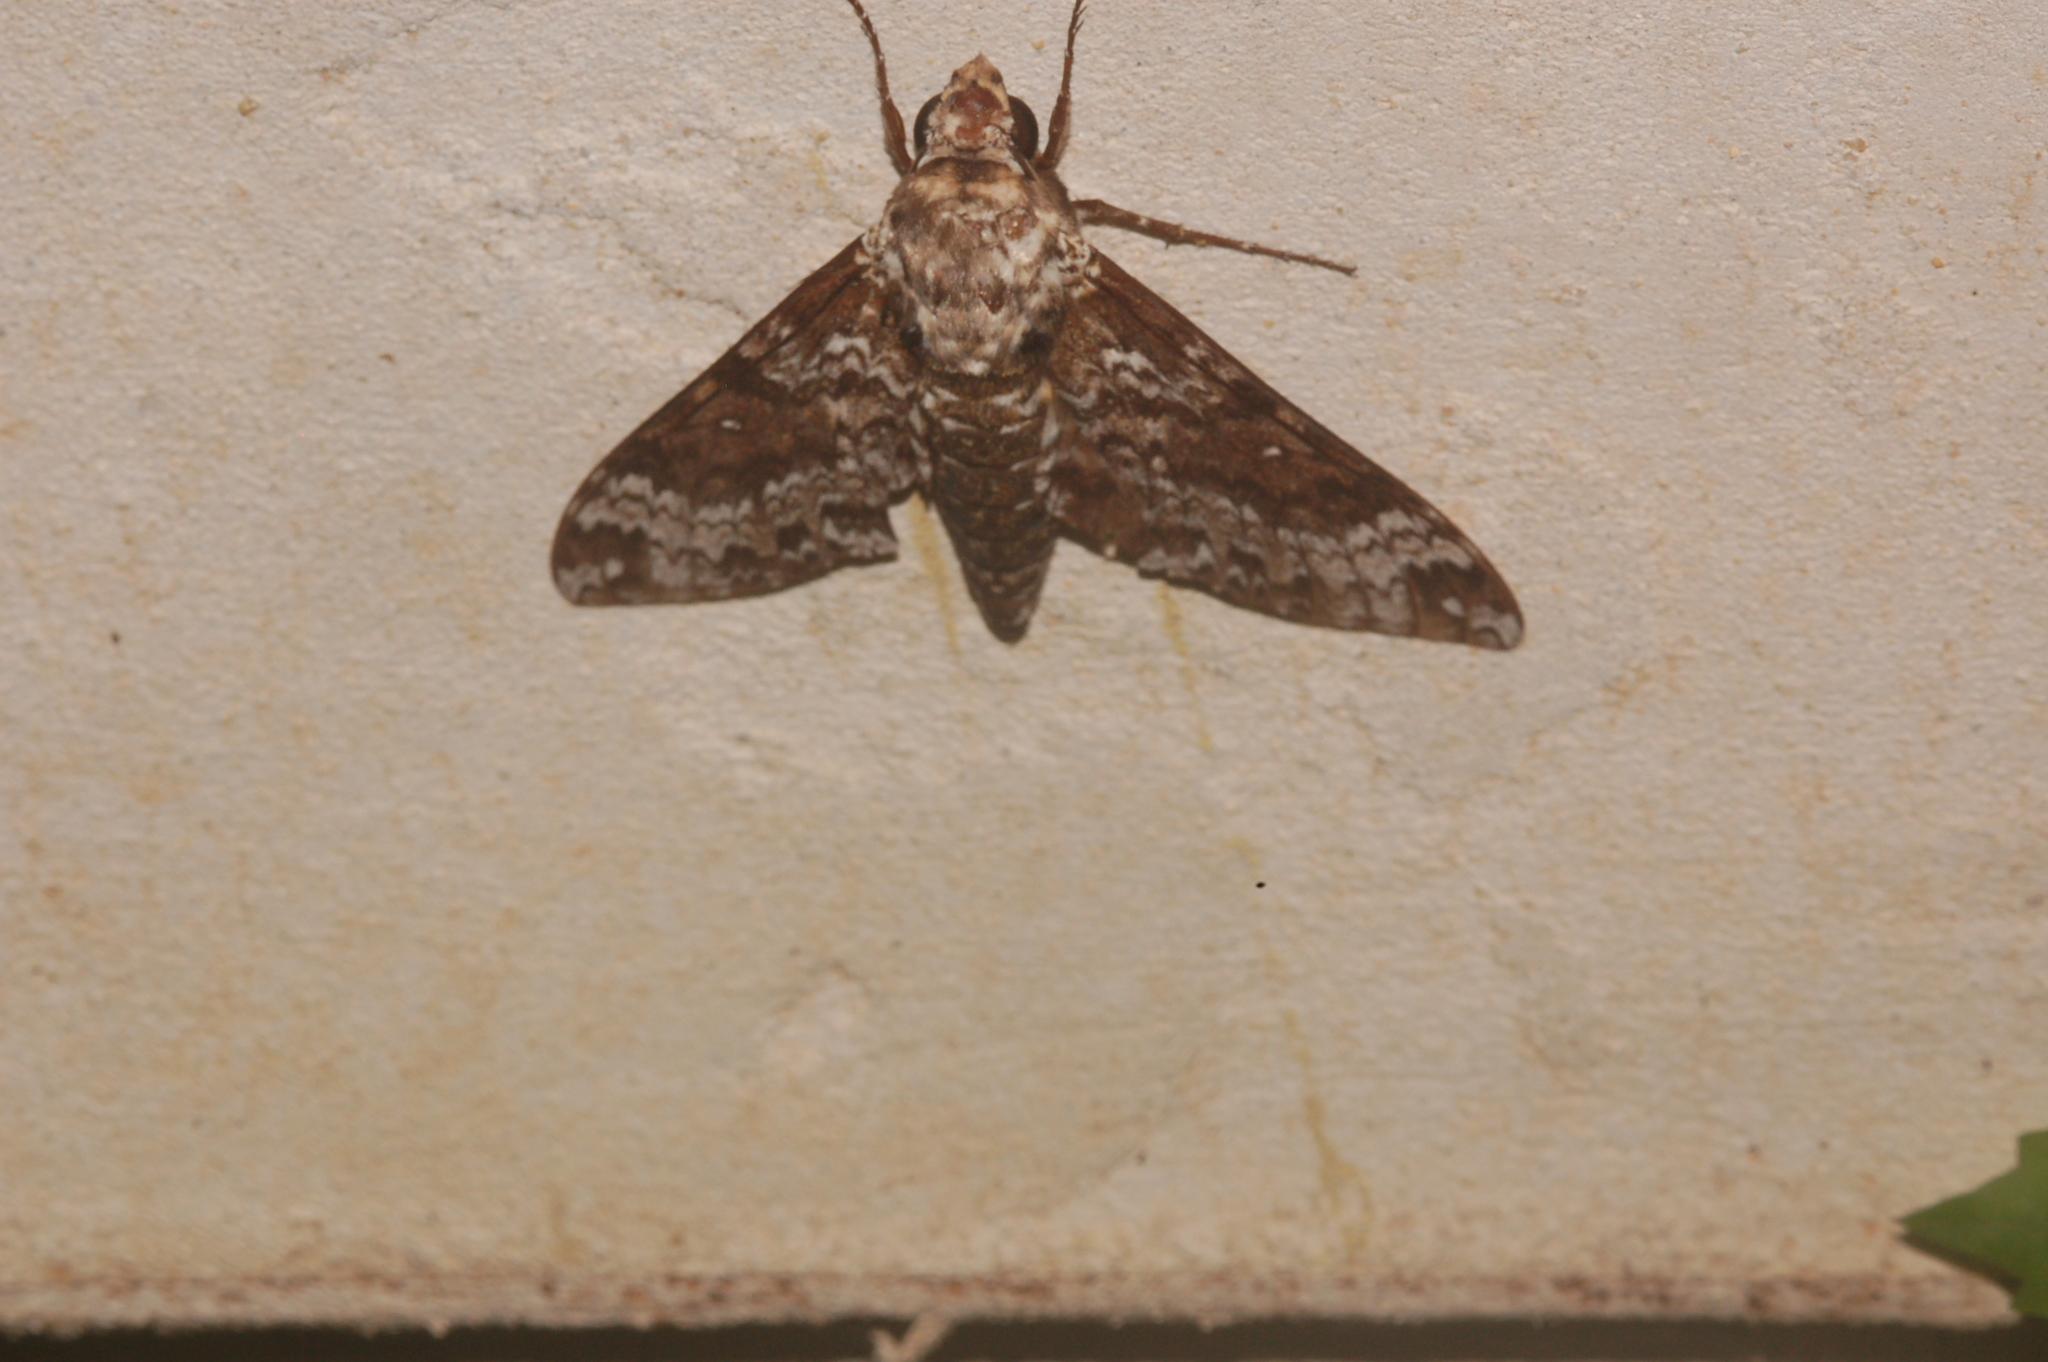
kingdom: Animalia
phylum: Arthropoda
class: Insecta
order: Lepidoptera
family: Sphingidae
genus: Manduca
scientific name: Manduca rustica
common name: Rustic sphinx
